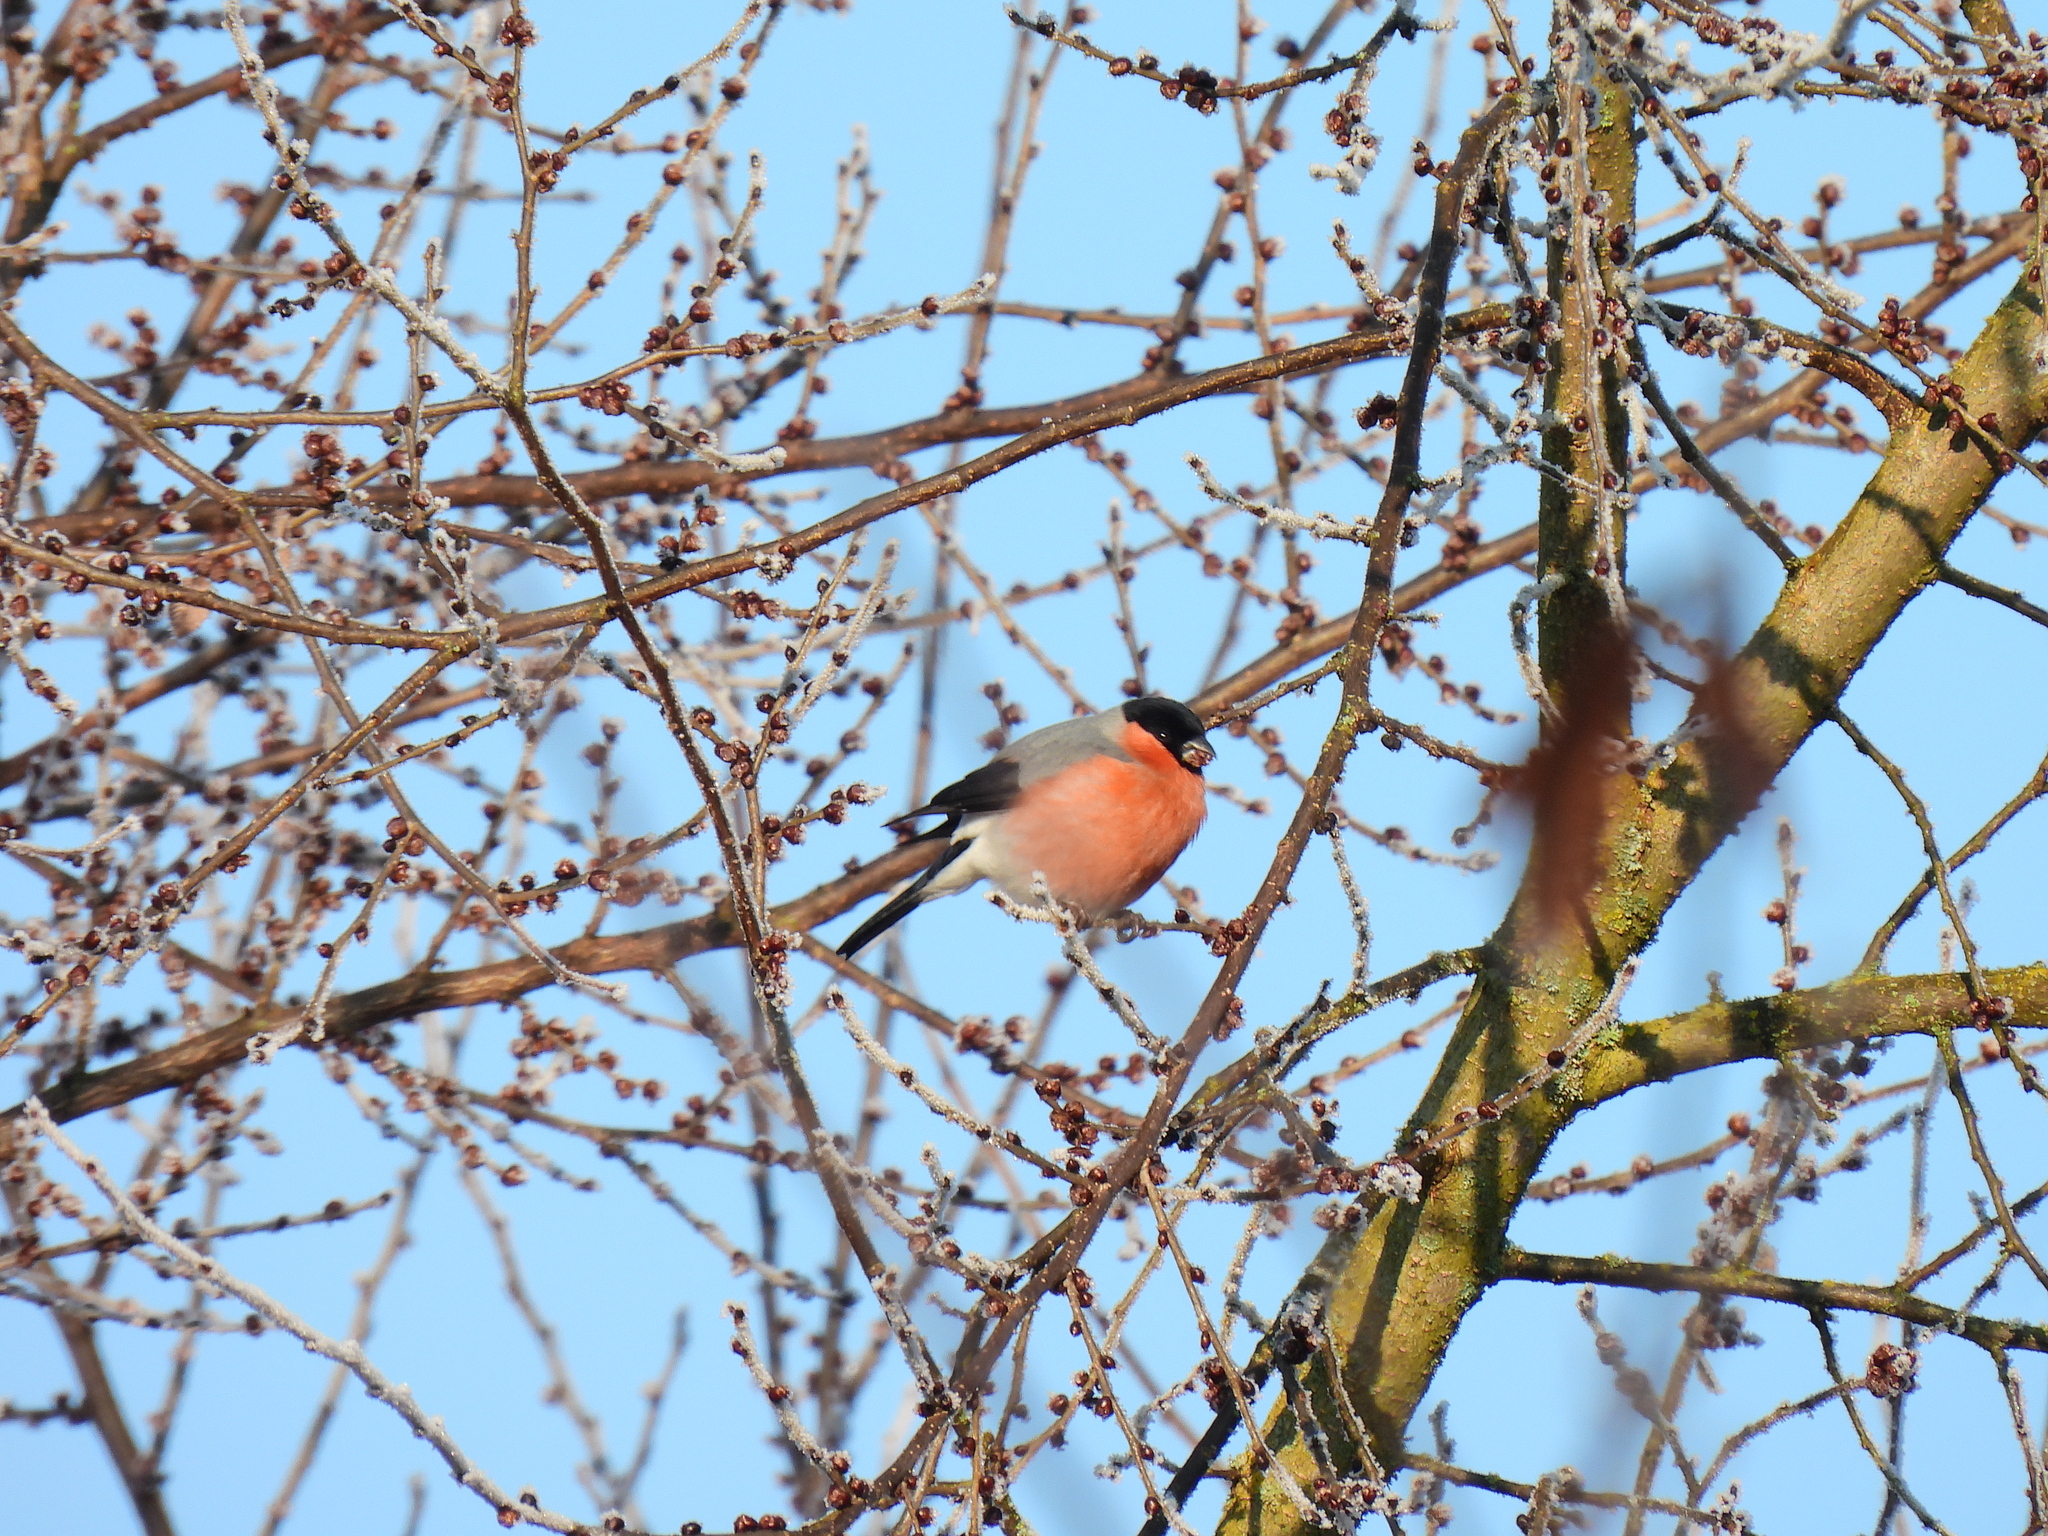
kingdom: Animalia
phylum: Chordata
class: Aves
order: Passeriformes
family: Fringillidae
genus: Pyrrhula
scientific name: Pyrrhula pyrrhula
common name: Eurasian bullfinch
